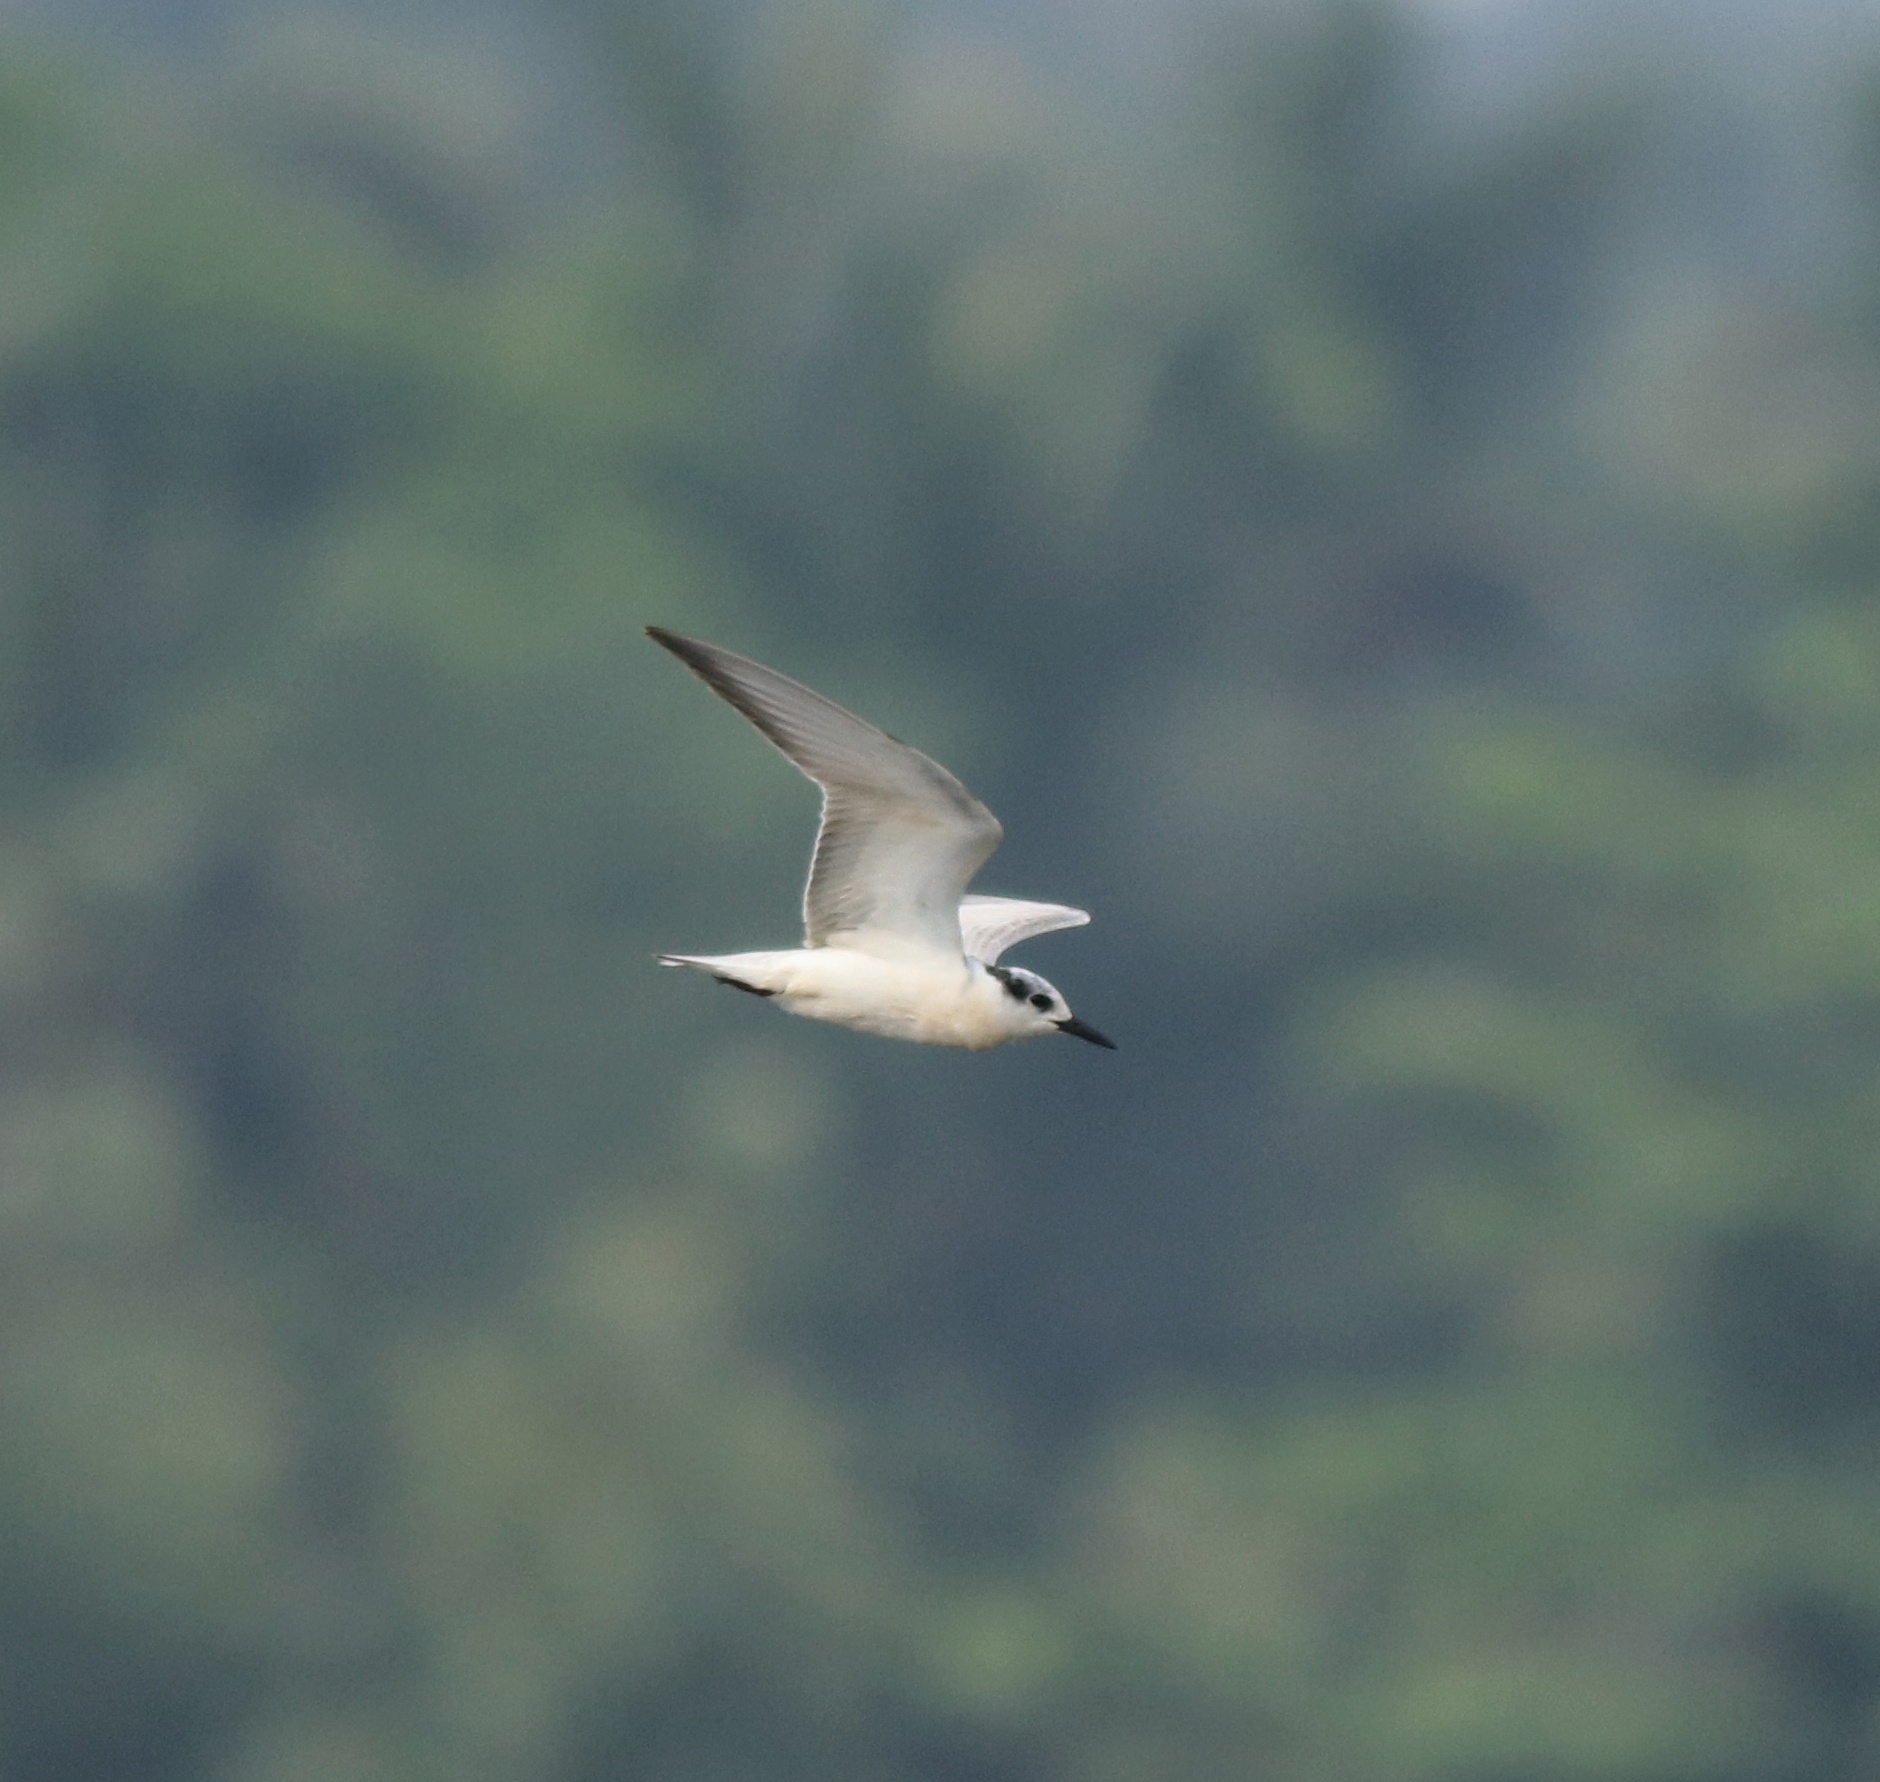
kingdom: Animalia
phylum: Chordata
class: Aves
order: Charadriiformes
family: Laridae
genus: Chlidonias
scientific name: Chlidonias hybrida
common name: Whiskered tern
